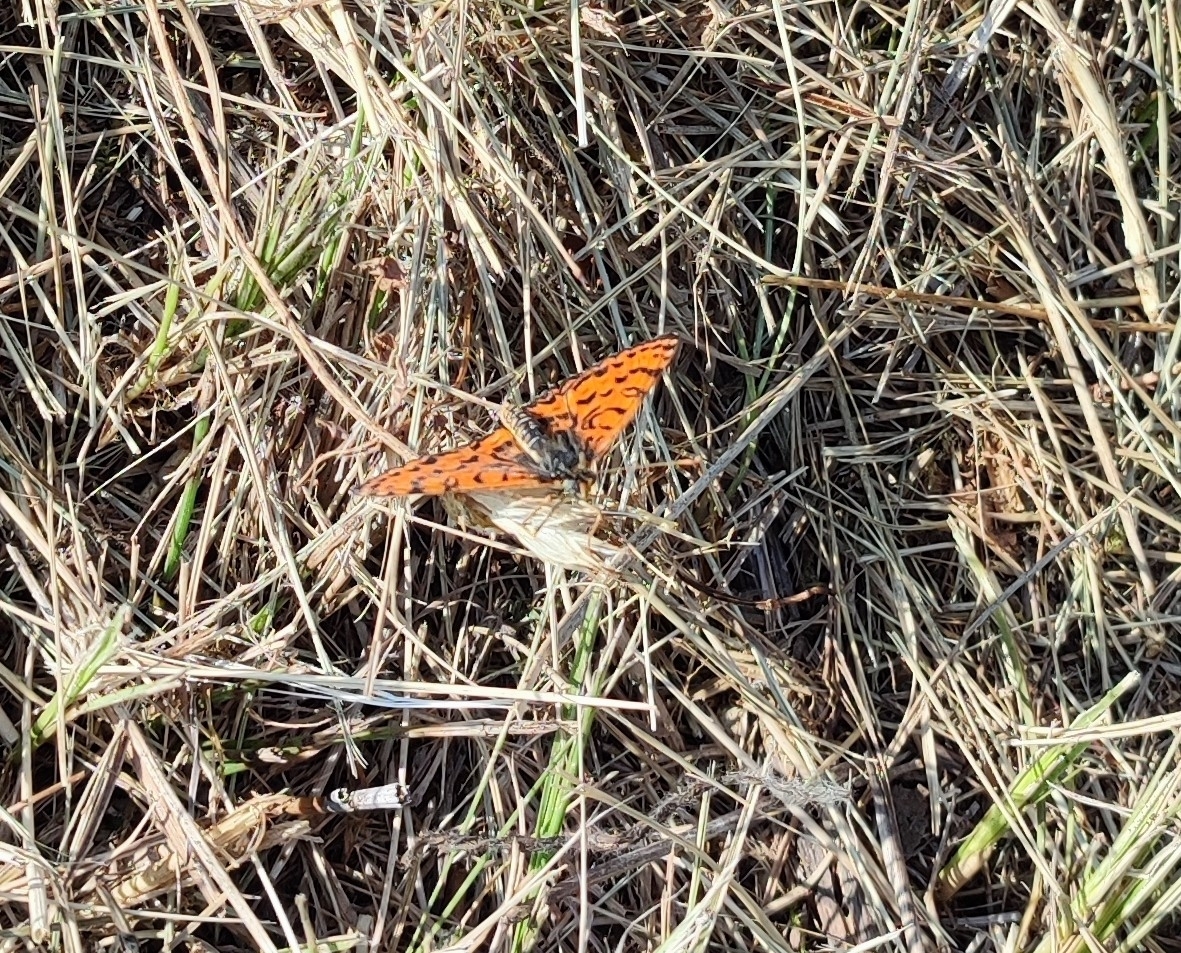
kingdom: Animalia
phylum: Arthropoda
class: Insecta
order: Lepidoptera
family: Nymphalidae
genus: Melitaea
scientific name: Melitaea didyma
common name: Spotted fritillary
